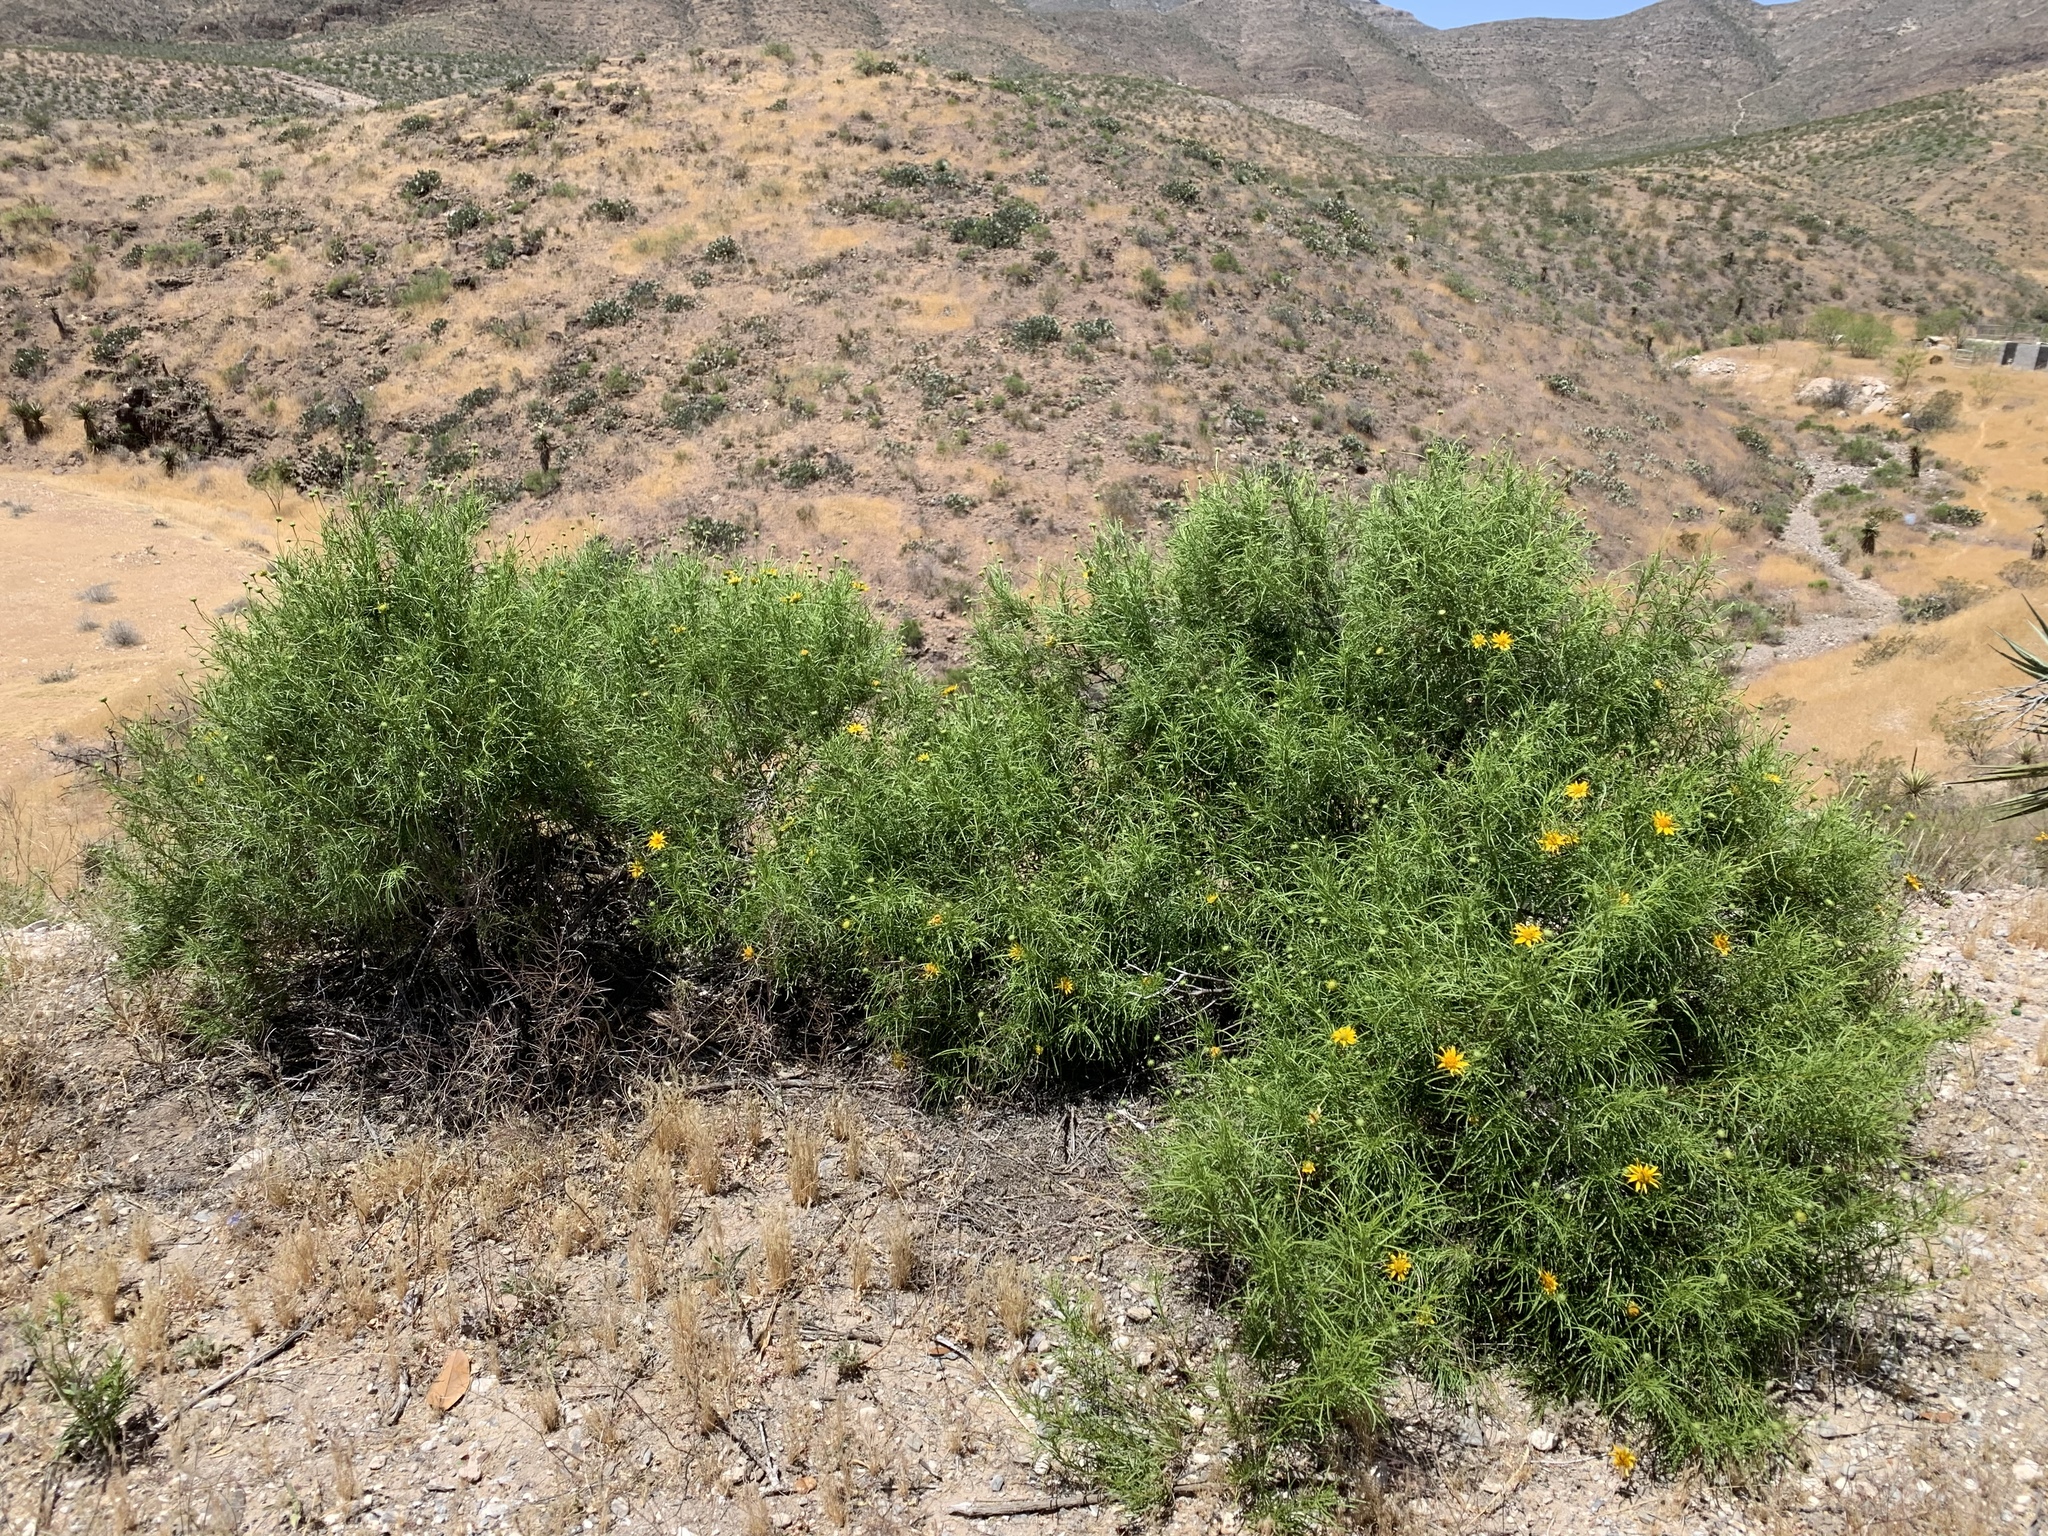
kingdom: Plantae
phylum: Tracheophyta
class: Magnoliopsida
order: Asterales
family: Asteraceae
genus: Sidneya
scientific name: Sidneya tenuifolia
